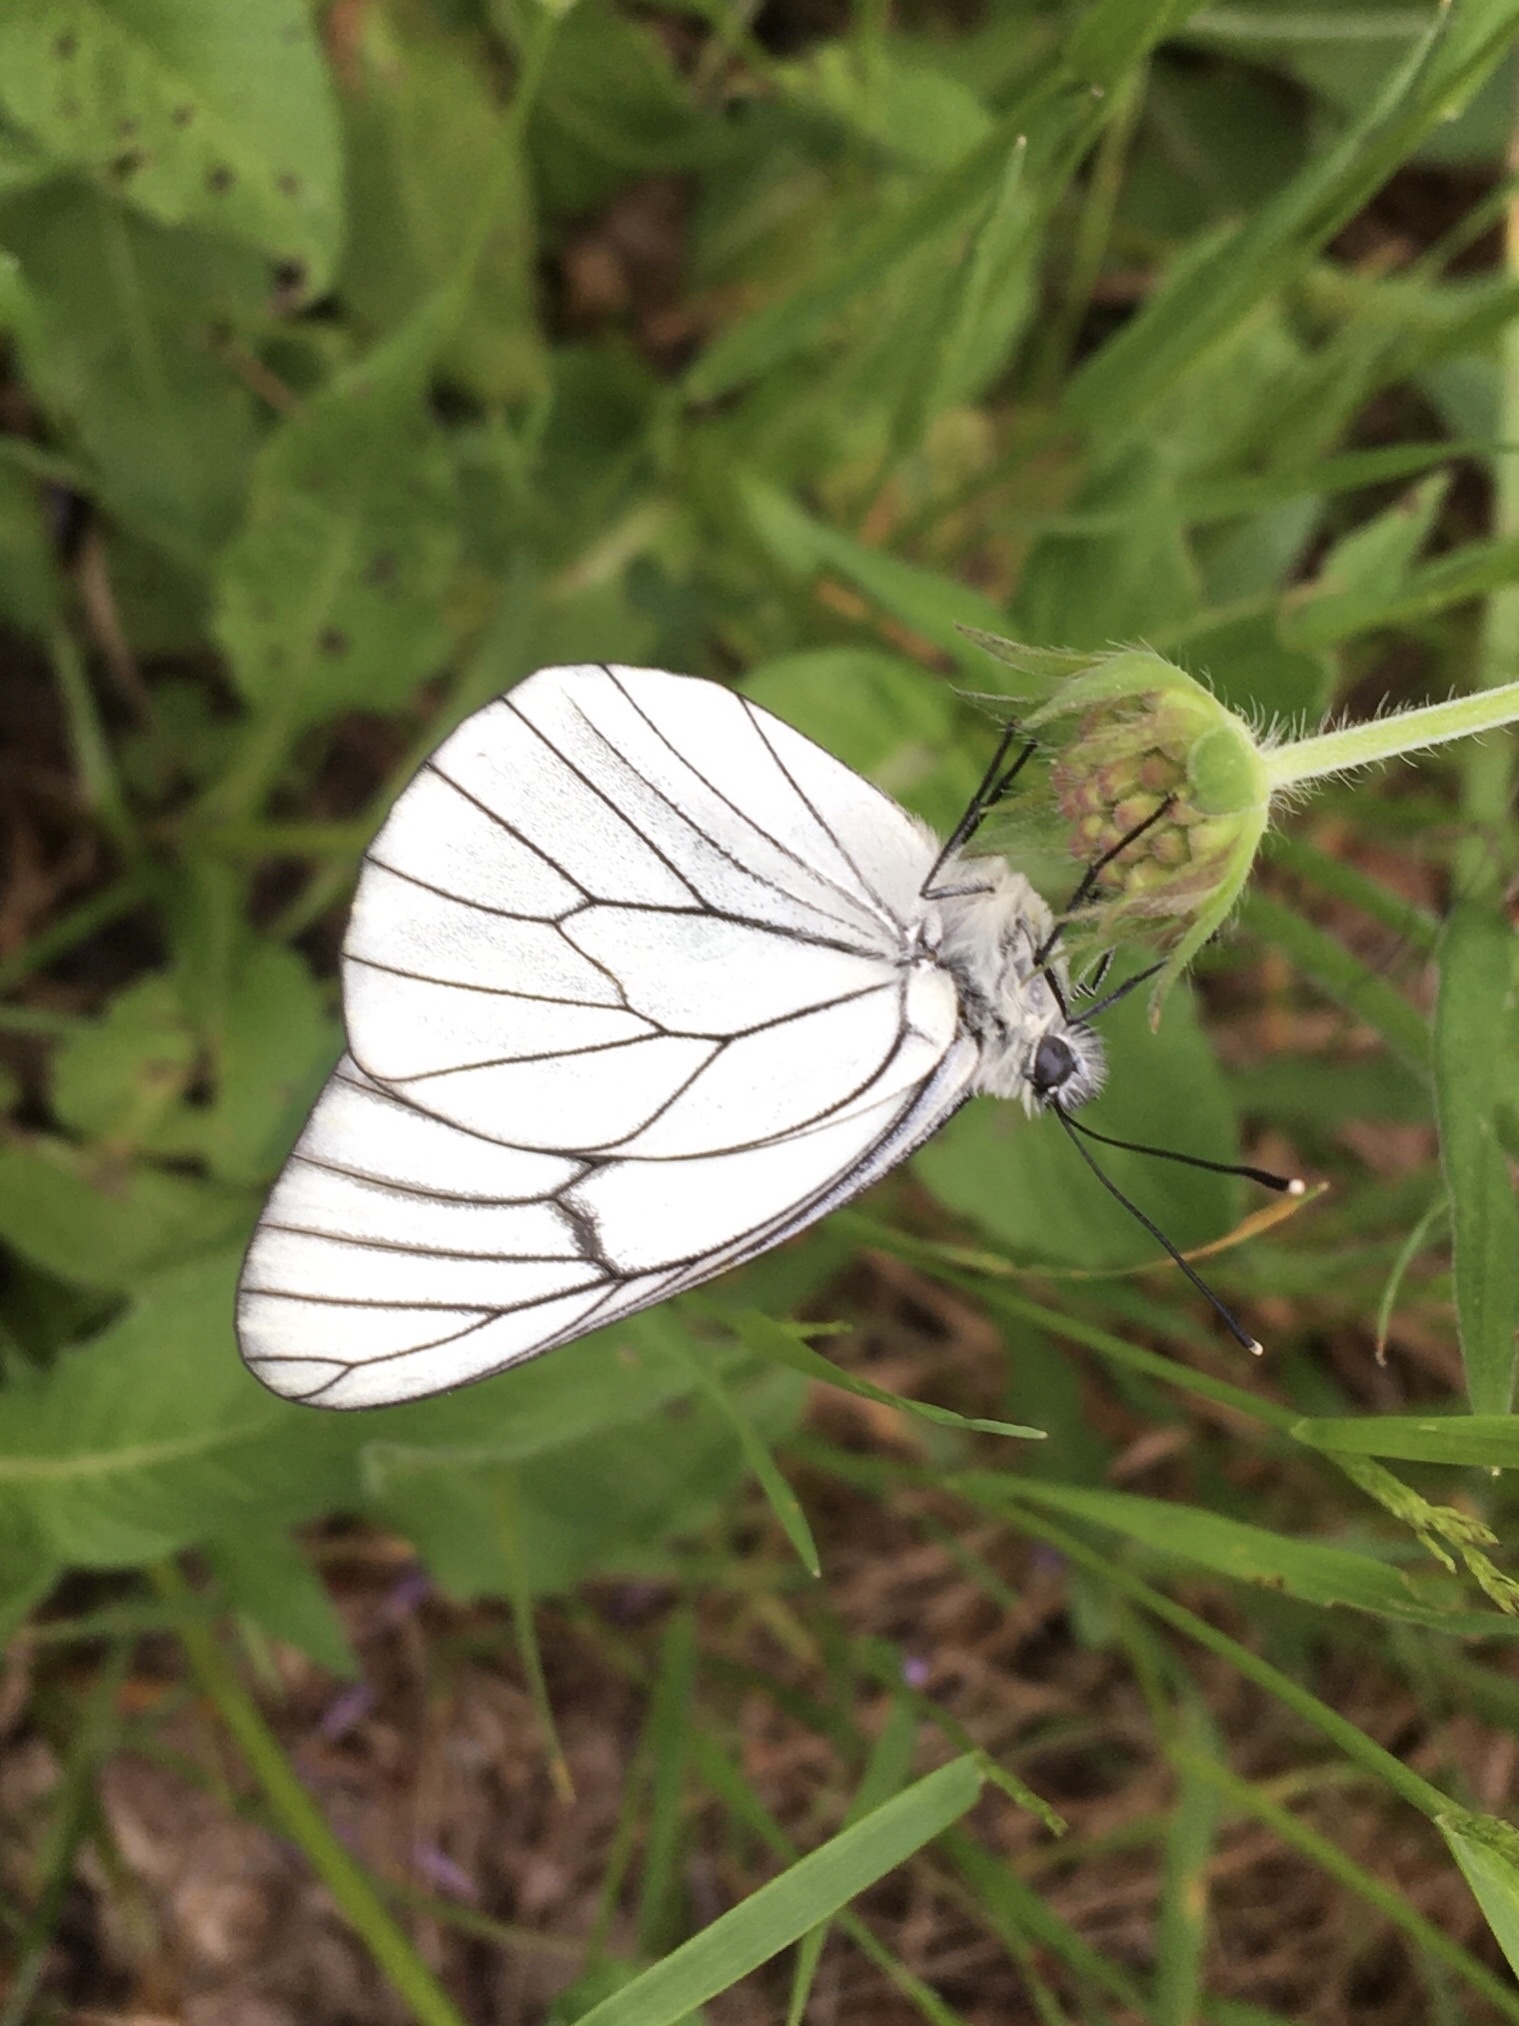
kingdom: Animalia
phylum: Arthropoda
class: Insecta
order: Lepidoptera
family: Pieridae
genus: Aporia
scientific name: Aporia crataegi
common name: Black-veined white
